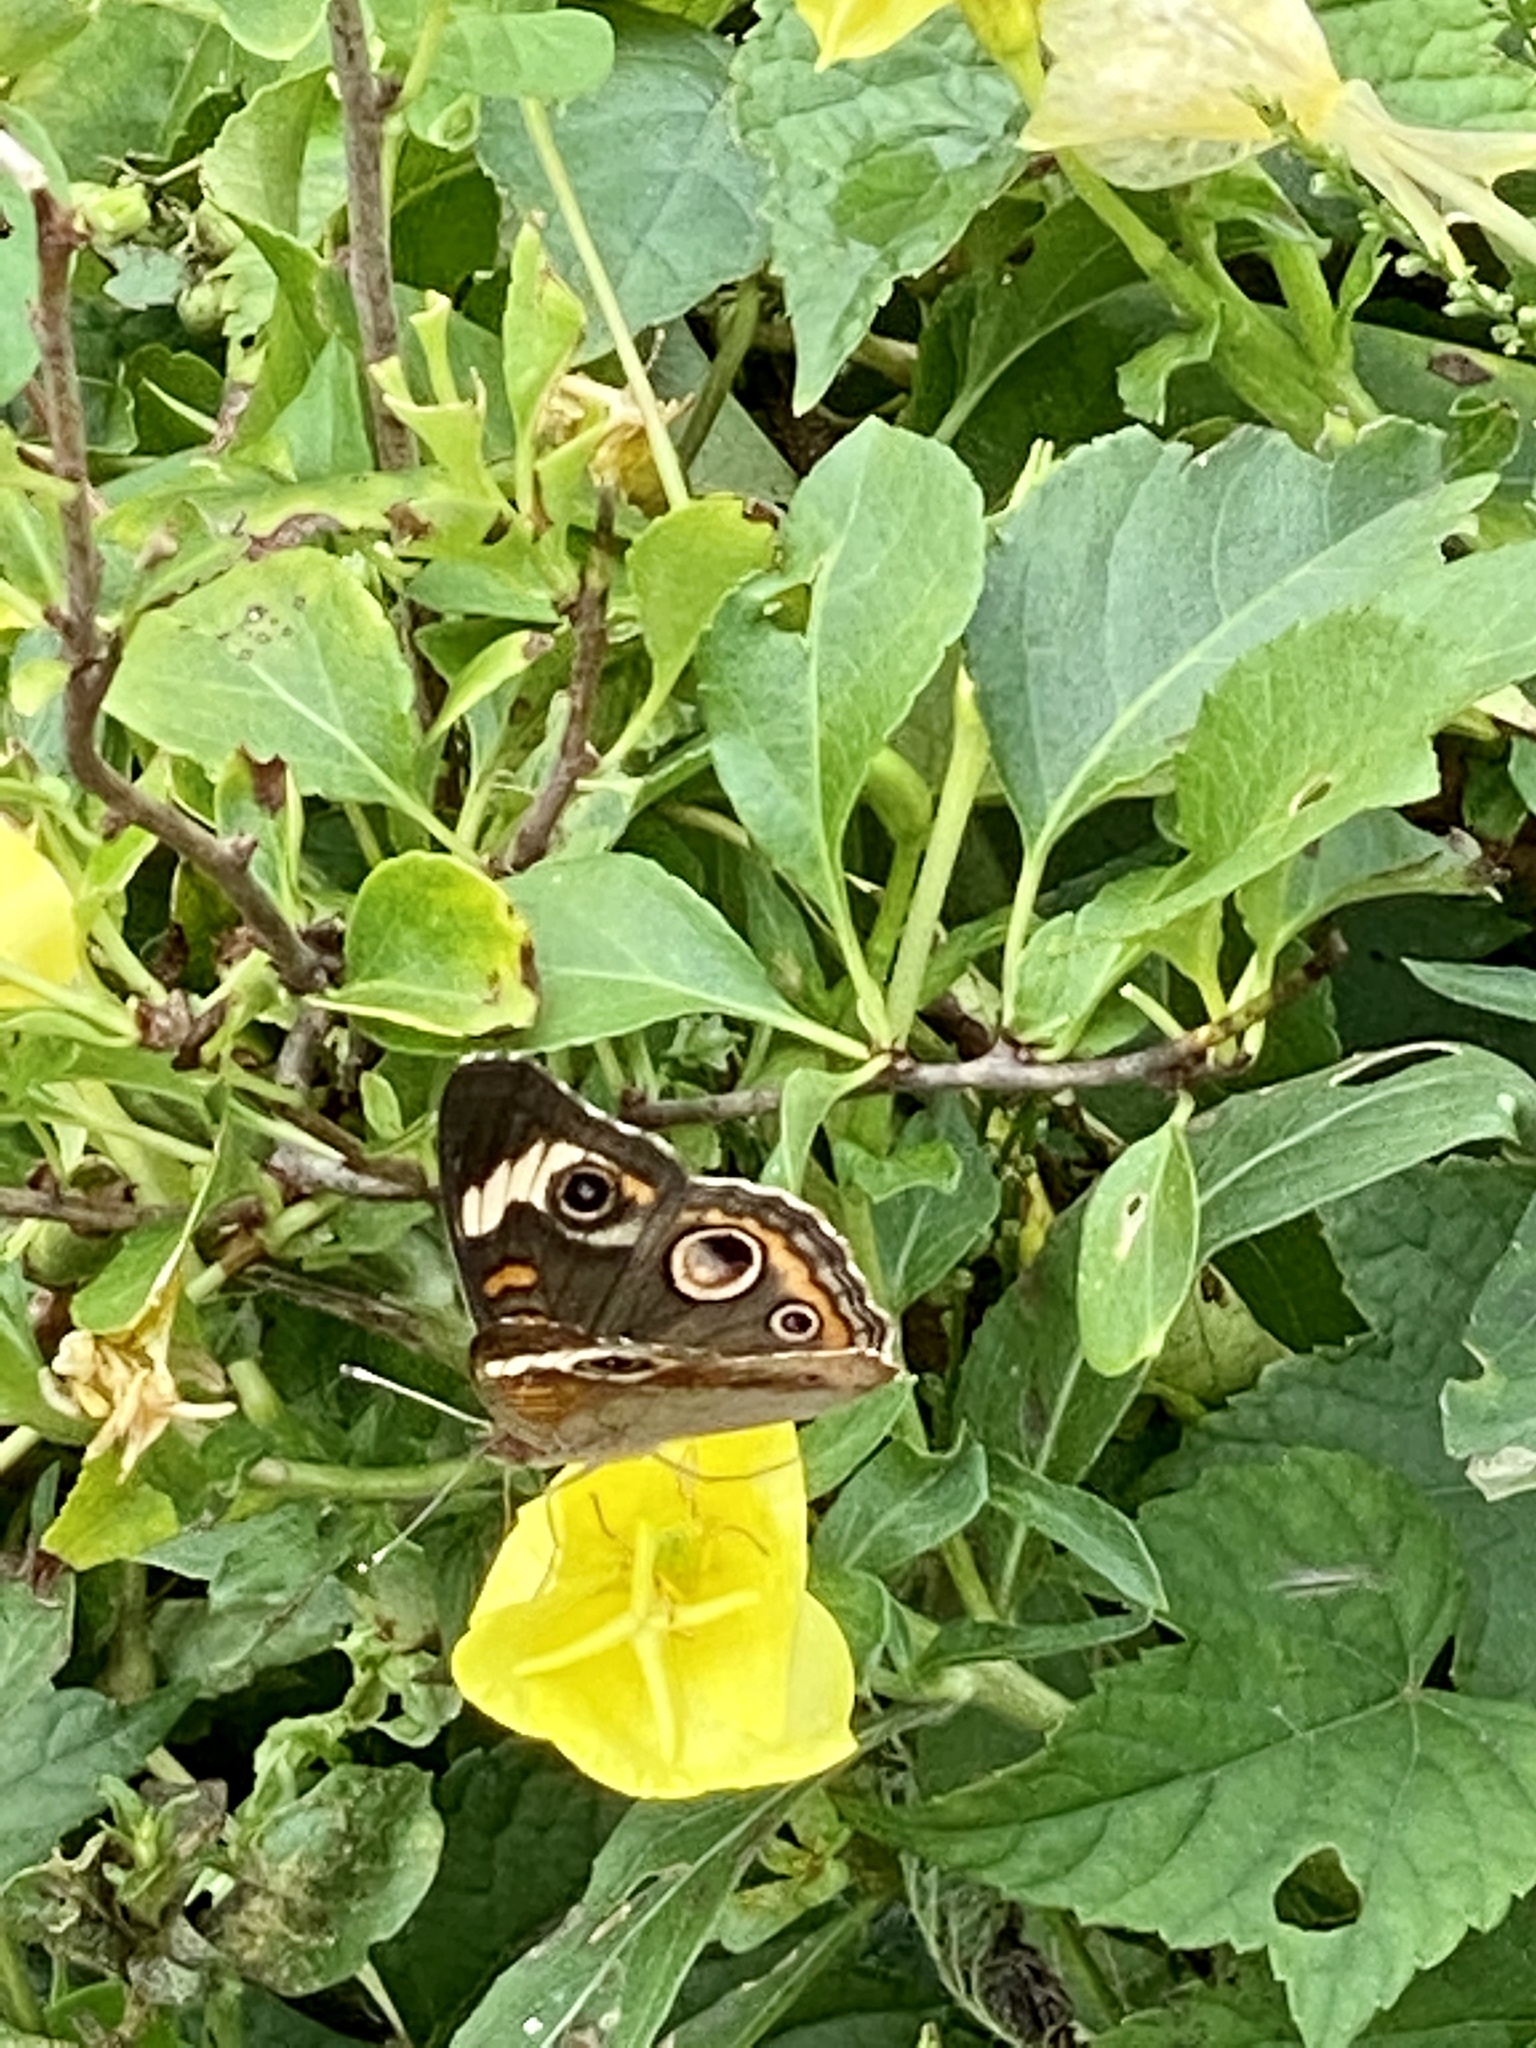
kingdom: Animalia
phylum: Arthropoda
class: Insecta
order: Lepidoptera
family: Nymphalidae
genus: Junonia
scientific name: Junonia coenia
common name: Common buckeye
